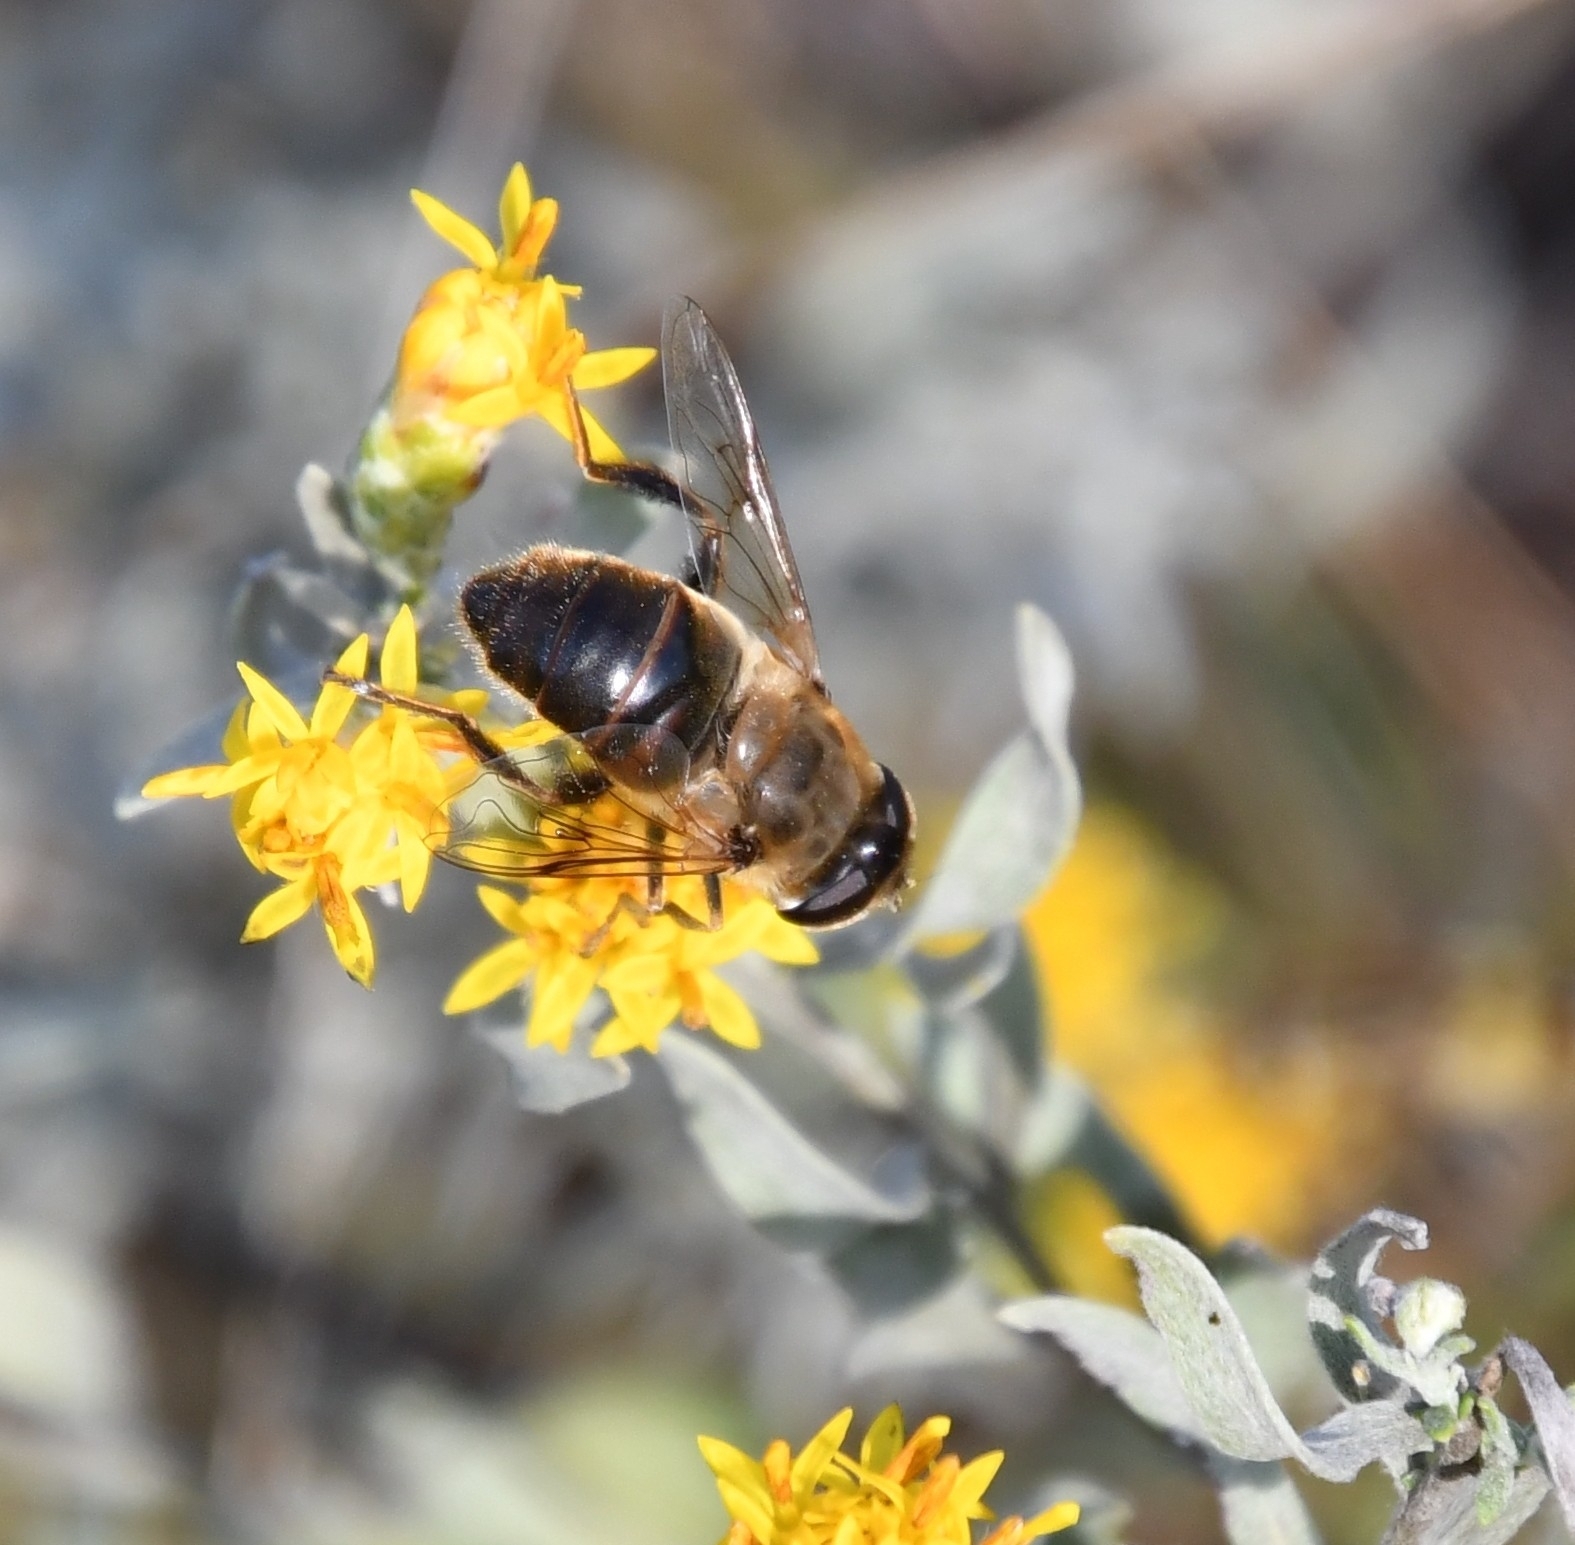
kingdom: Animalia
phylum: Arthropoda
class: Insecta
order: Diptera
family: Syrphidae
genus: Eristalis
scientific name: Eristalis tenax
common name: Drone fly
